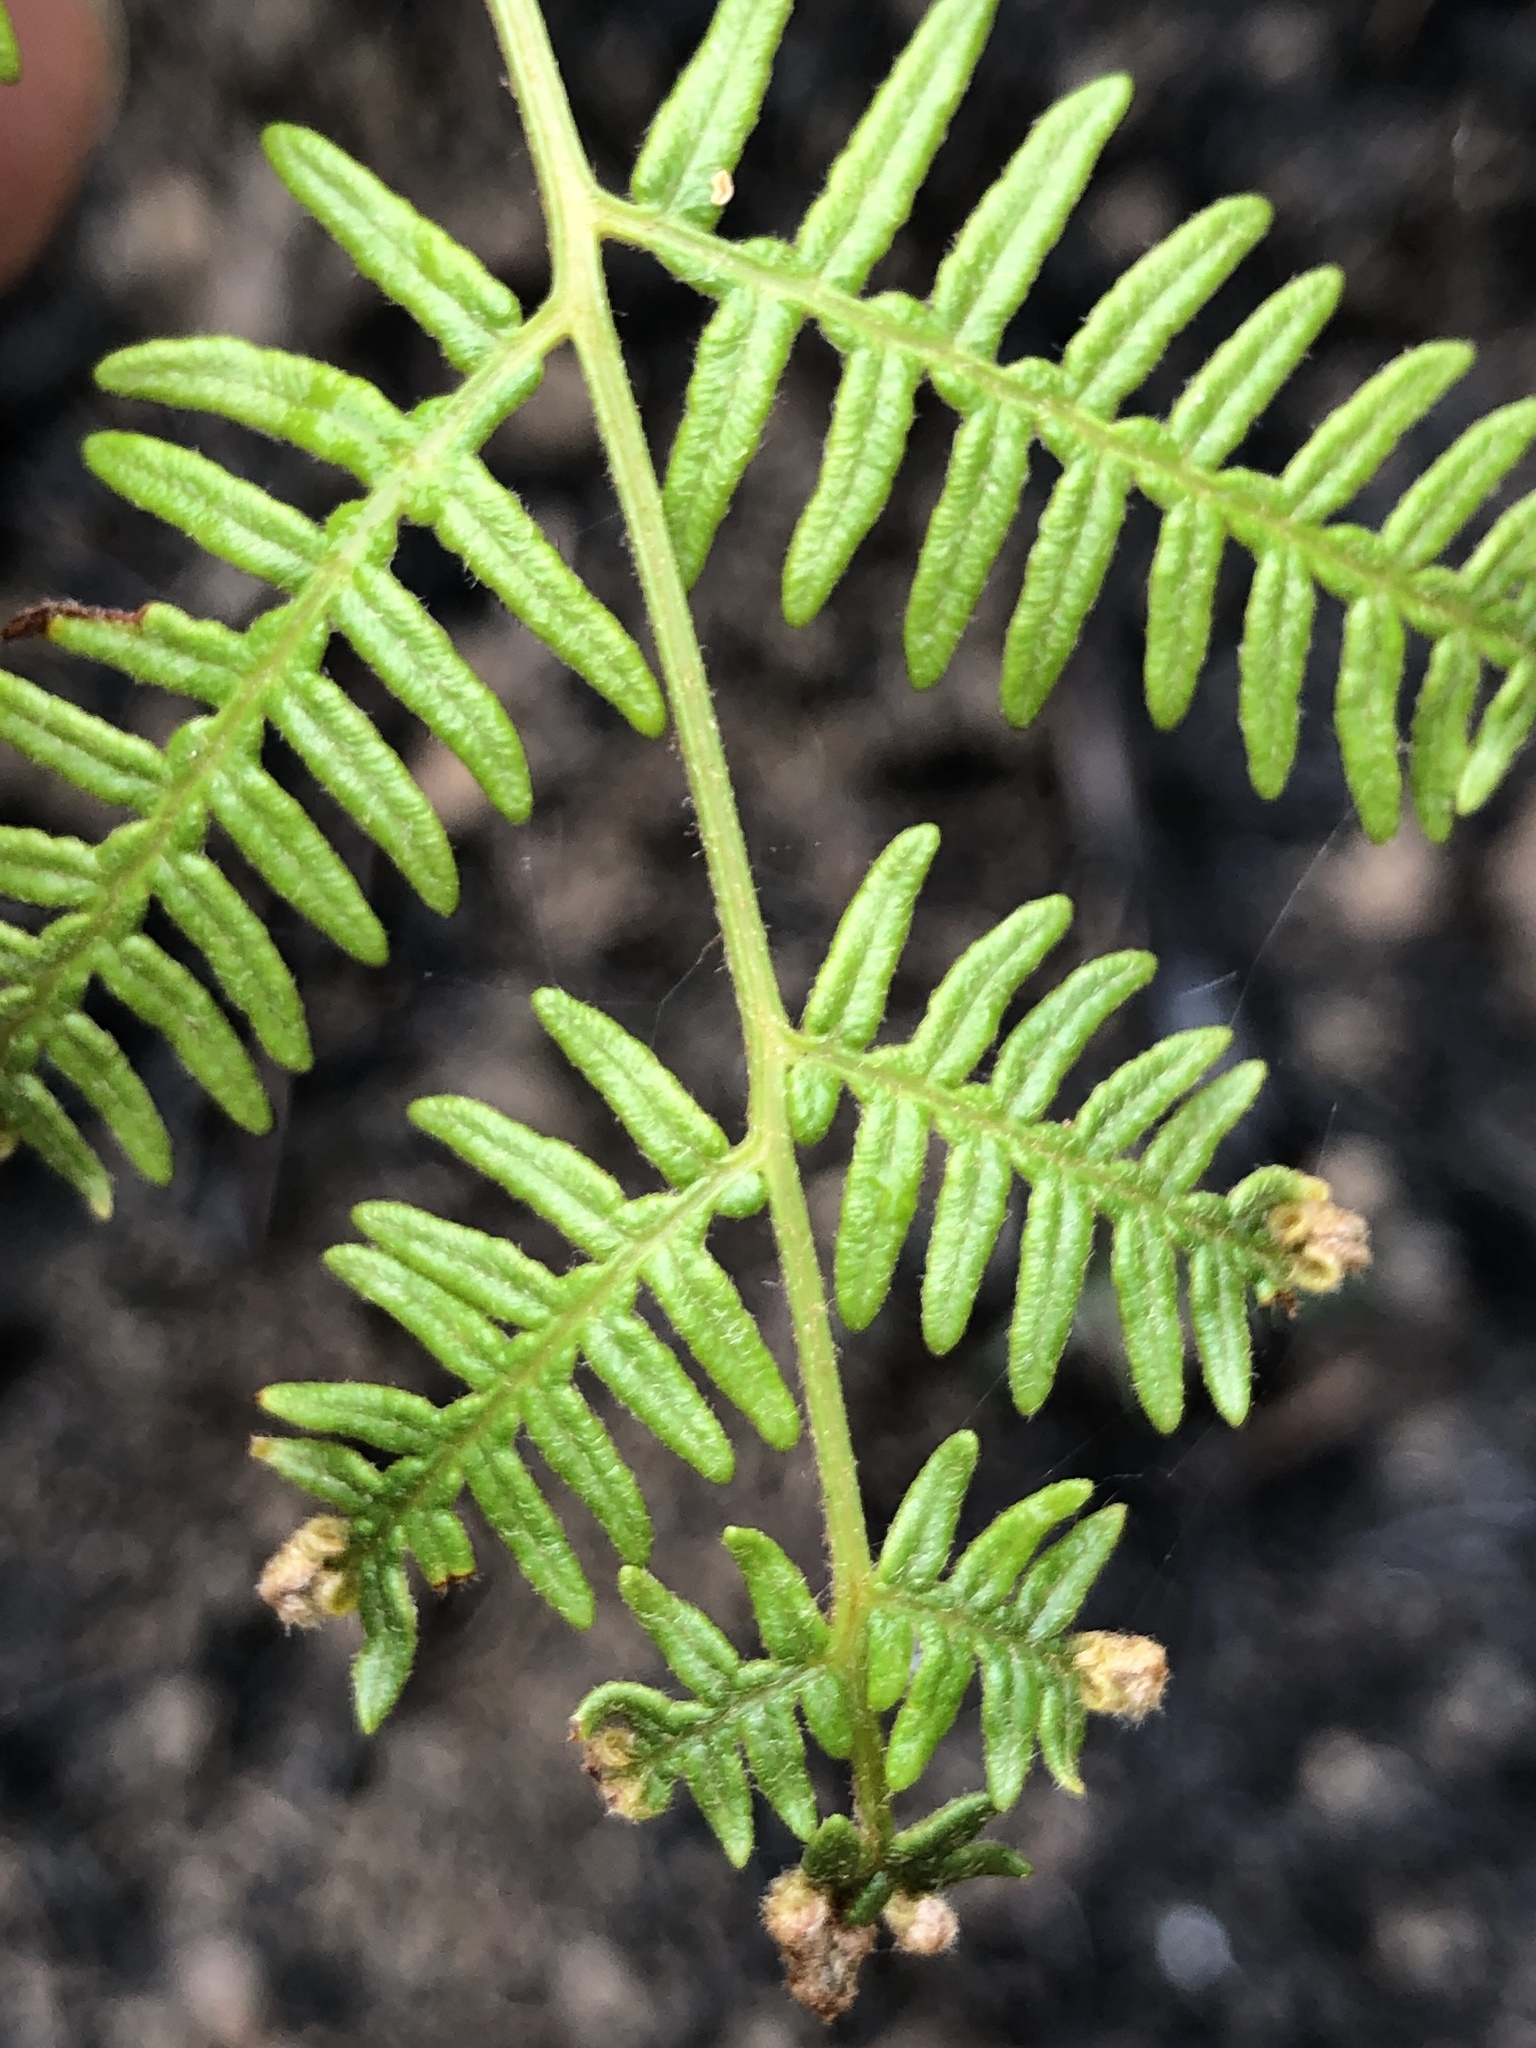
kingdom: Plantae
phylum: Tracheophyta
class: Polypodiopsida
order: Polypodiales
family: Dennstaedtiaceae
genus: Pteridium
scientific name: Pteridium esculentum
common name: Bracken fern
